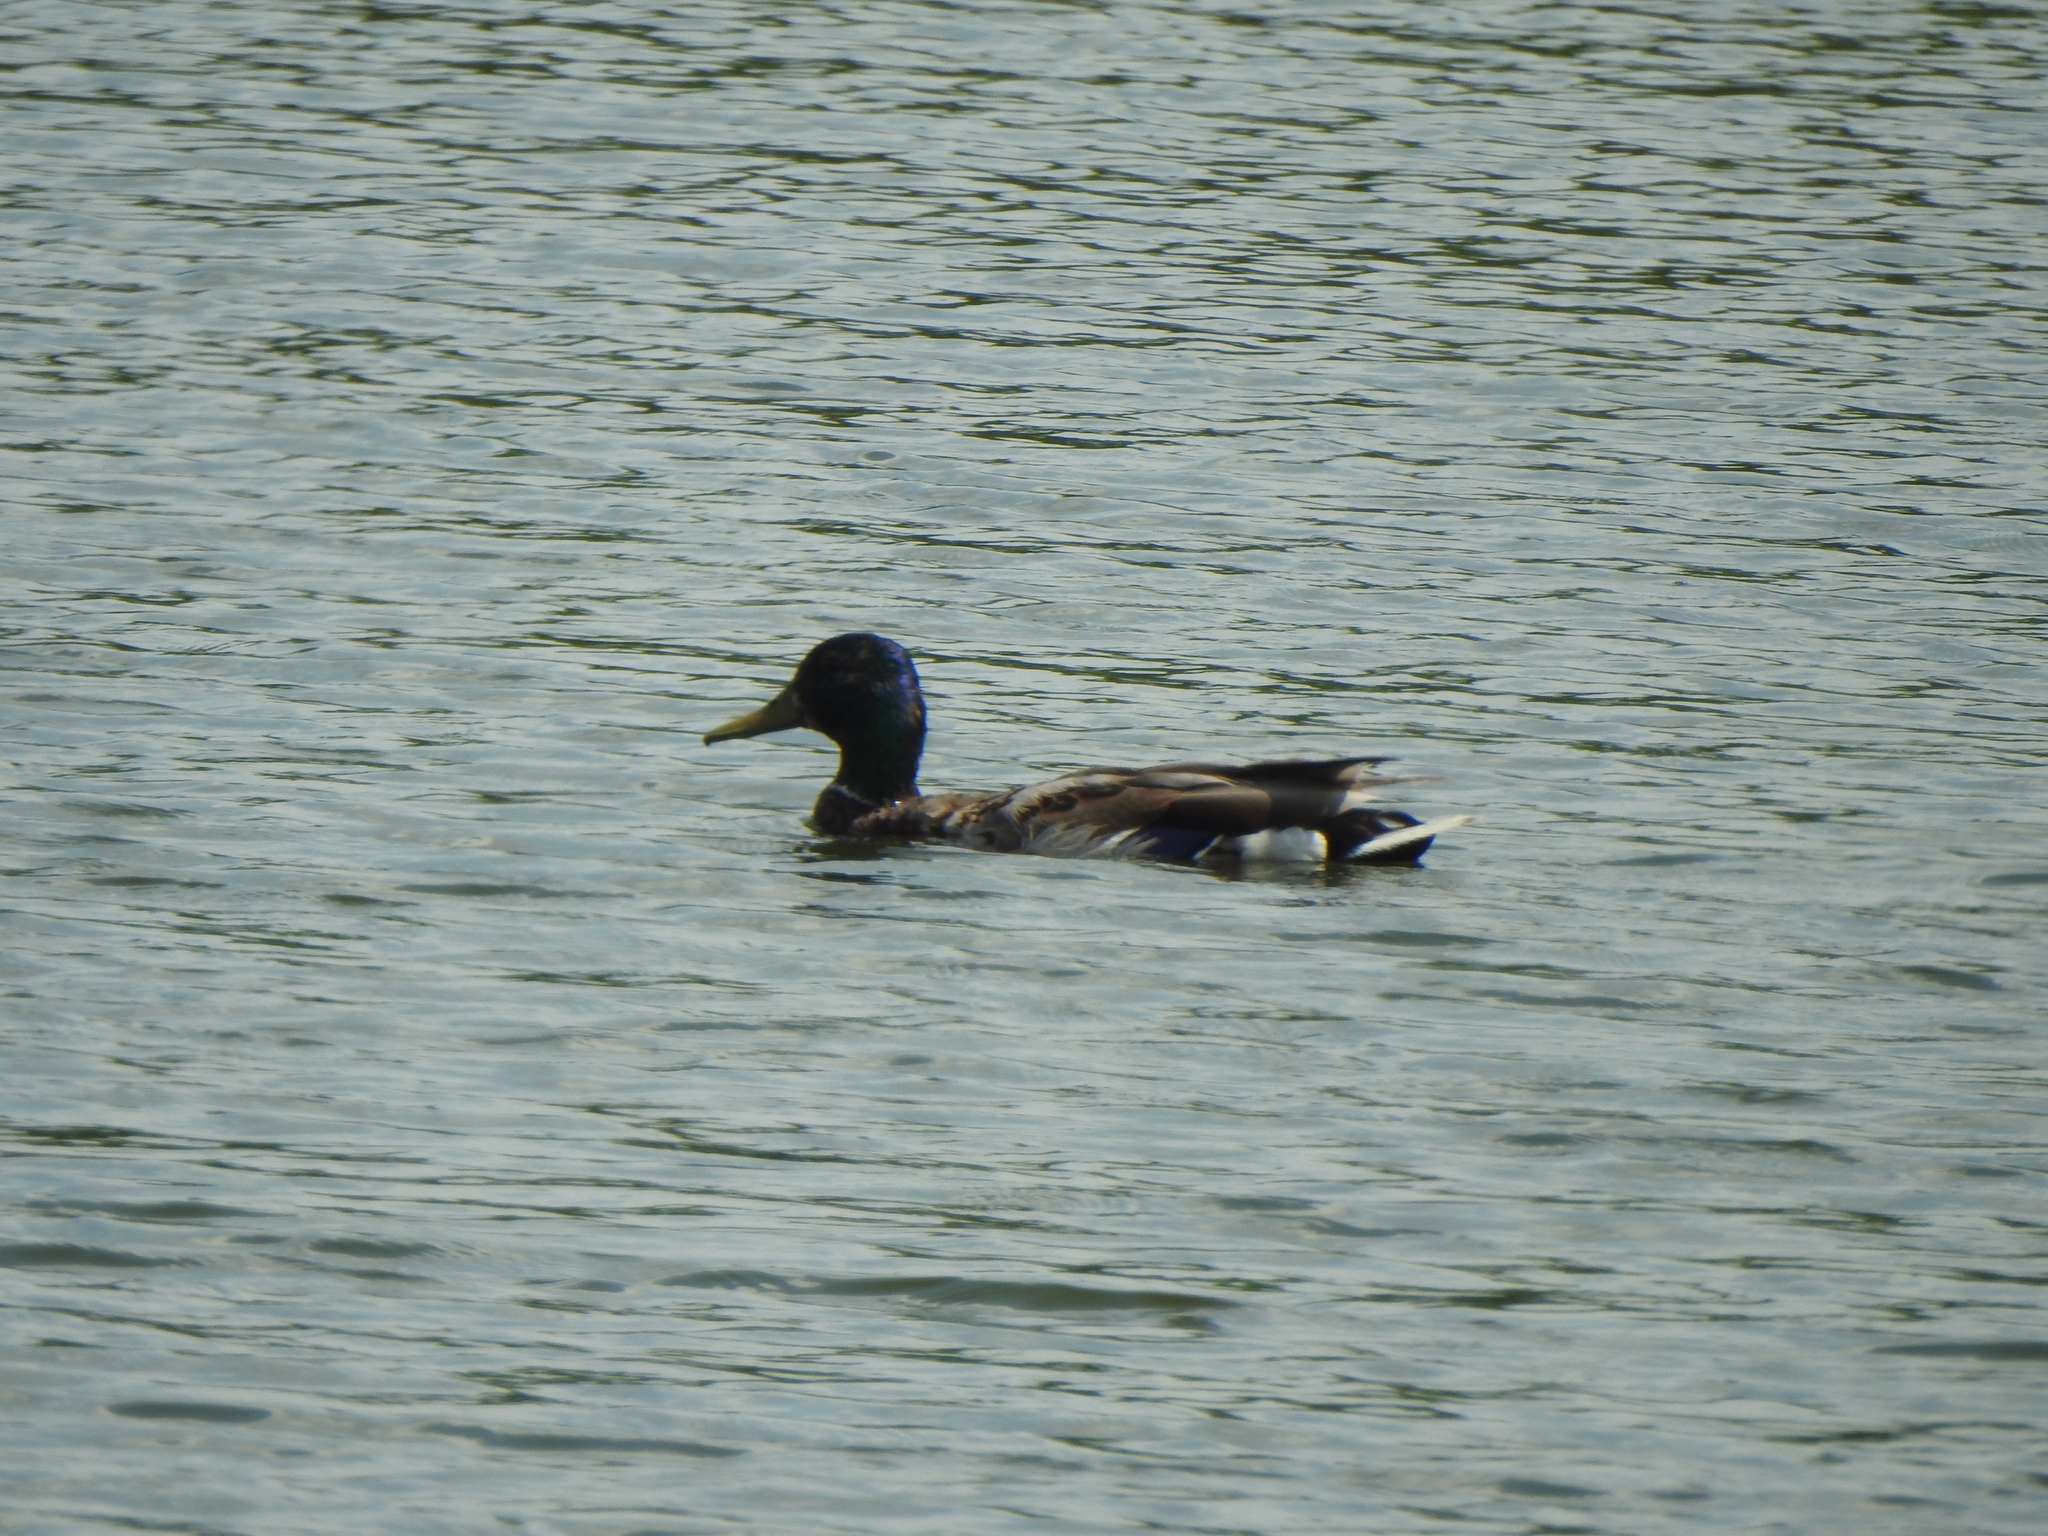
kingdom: Animalia
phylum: Chordata
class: Aves
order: Anseriformes
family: Anatidae
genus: Anas
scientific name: Anas platyrhynchos
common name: Mallard
